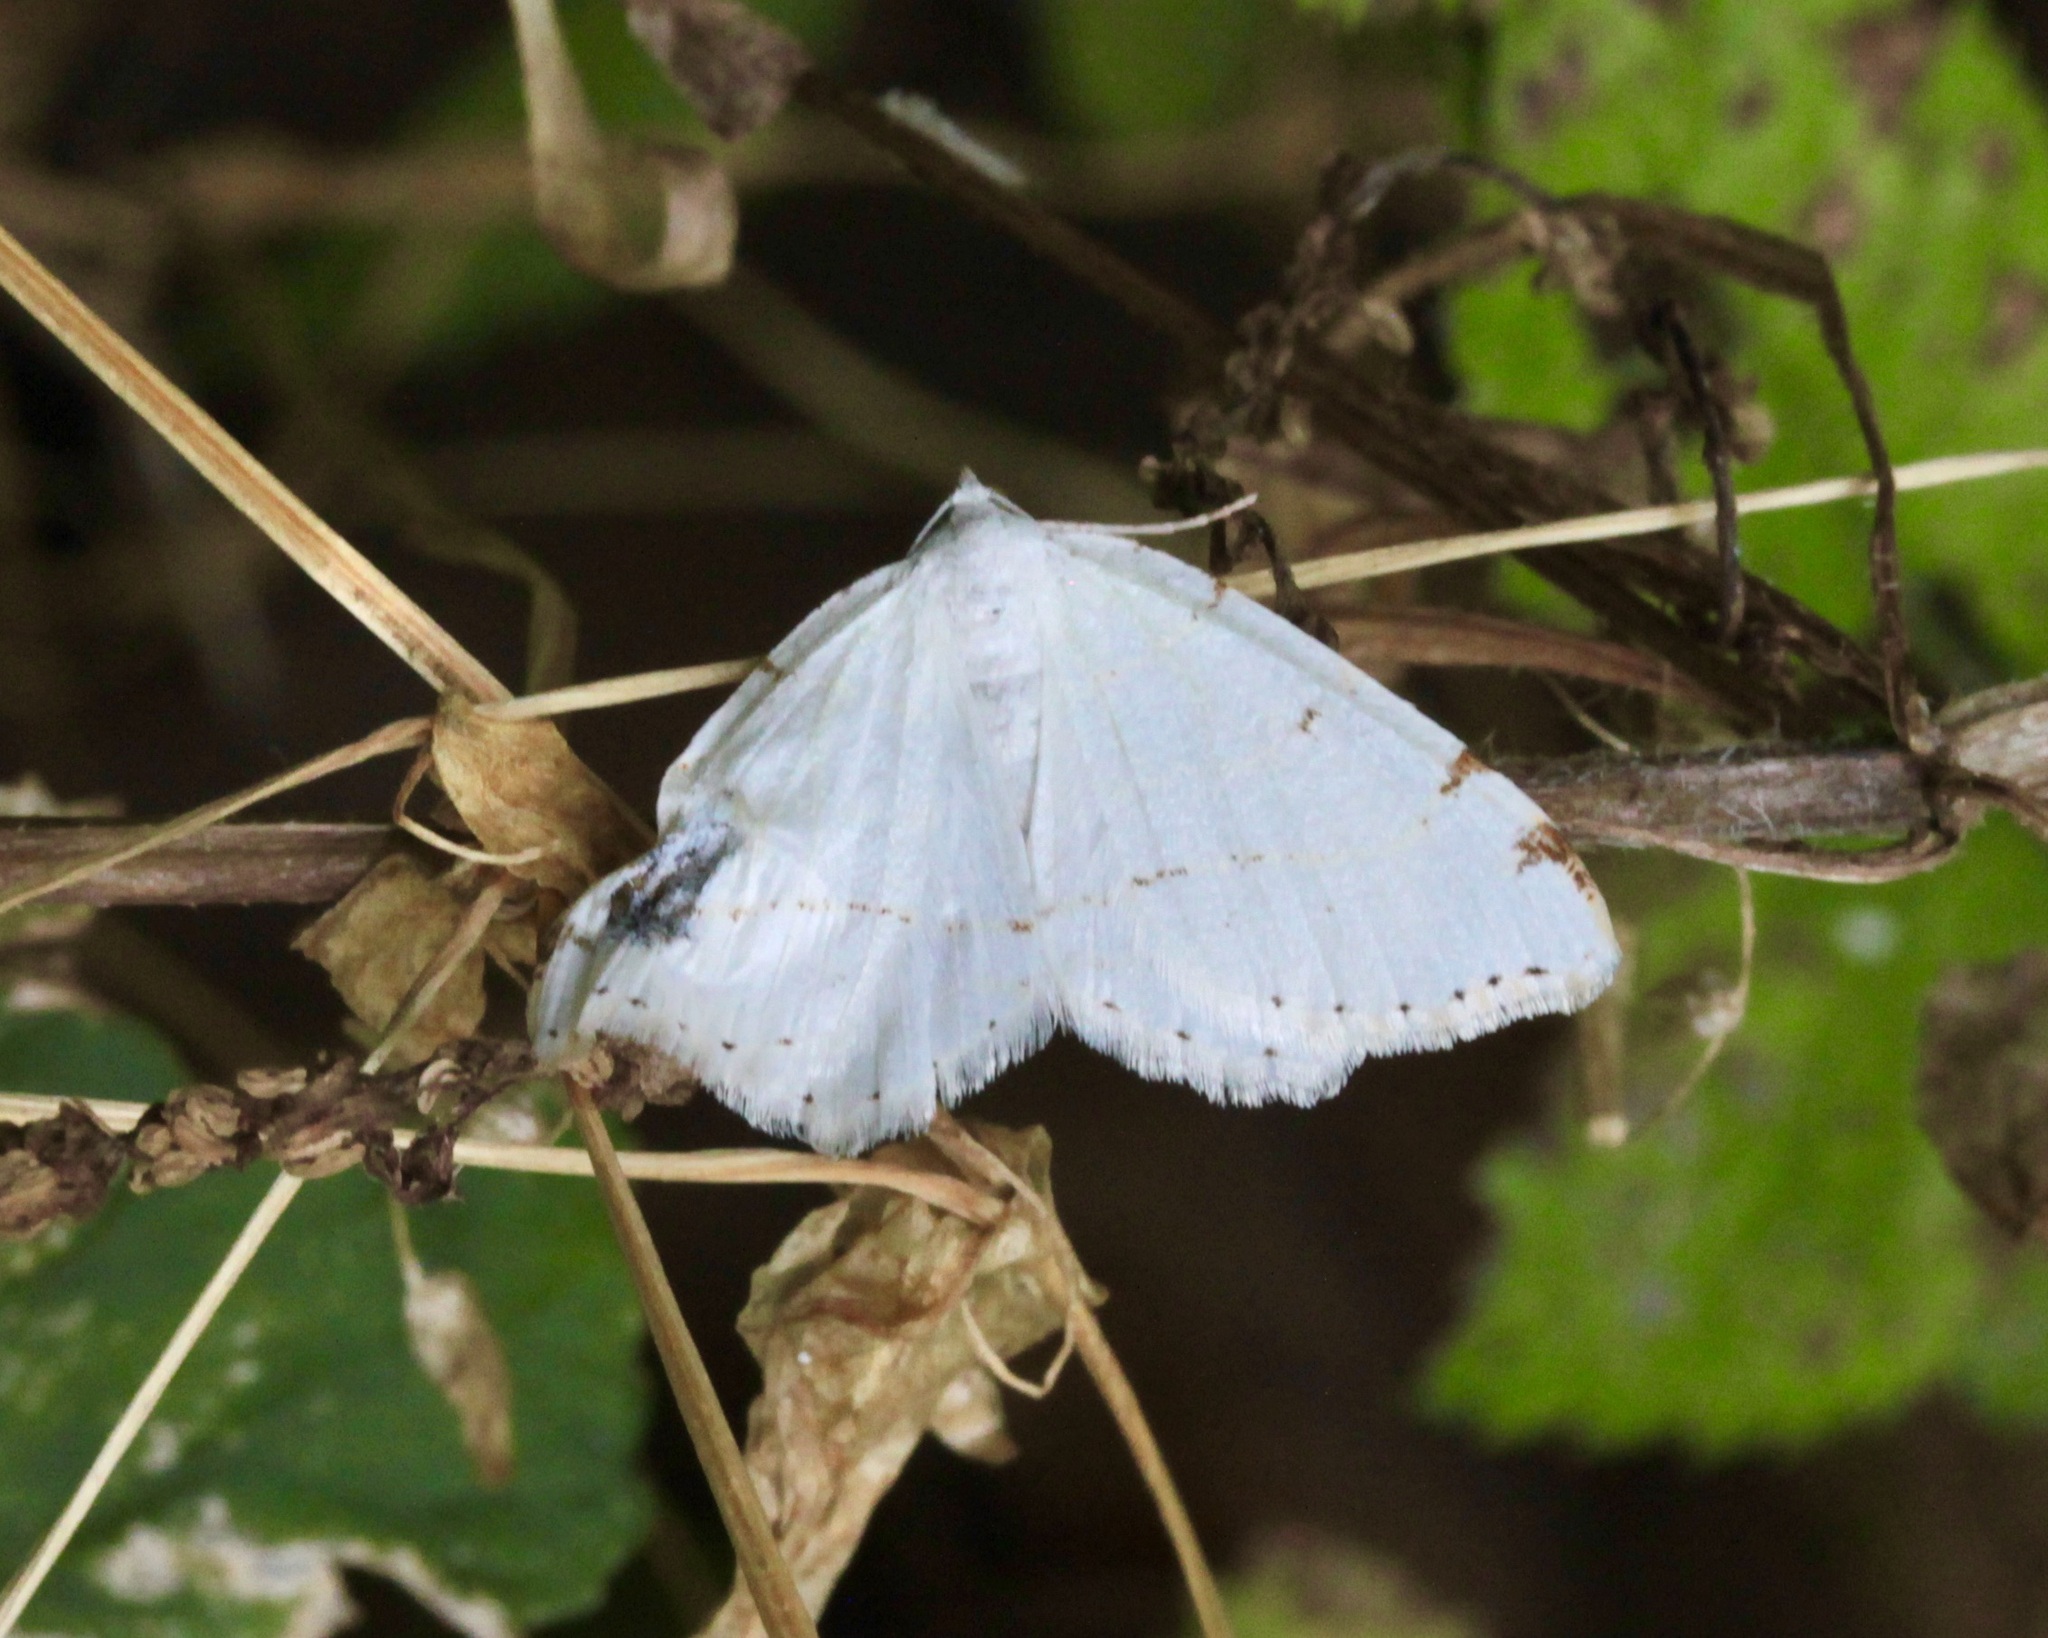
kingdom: Animalia
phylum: Arthropoda
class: Insecta
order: Lepidoptera
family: Geometridae
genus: Macaria
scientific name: Macaria pustularia
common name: Lesser maple spanworm moth
